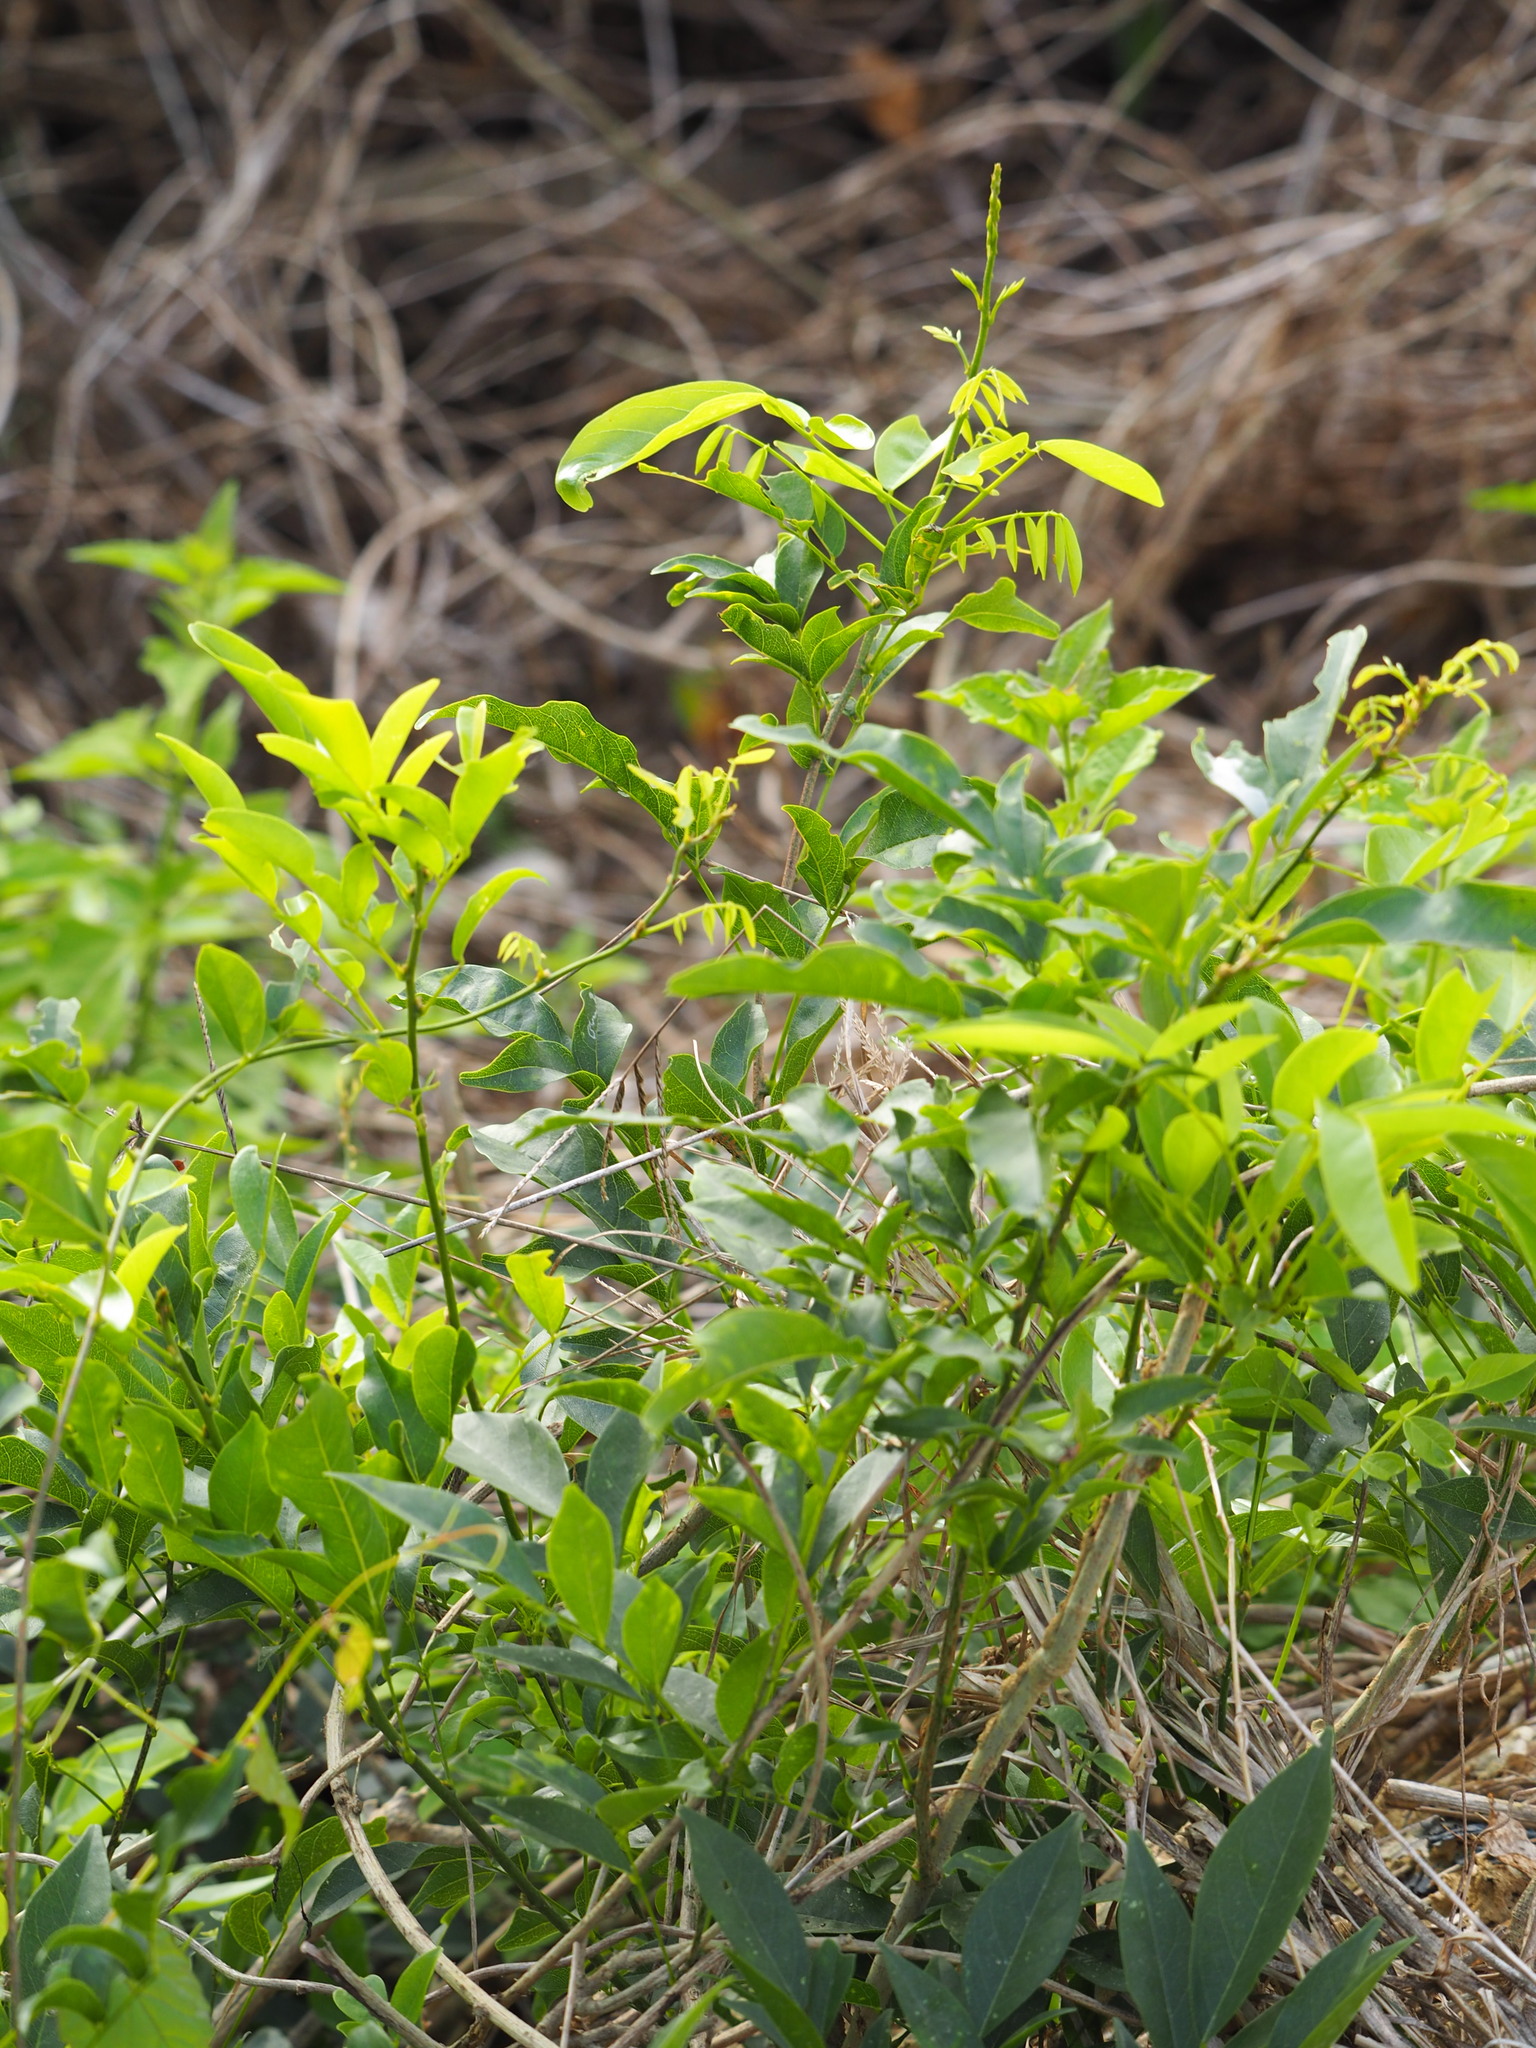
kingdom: Plantae
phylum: Tracheophyta
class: Magnoliopsida
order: Fabales
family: Fabaceae
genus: Wisteriopsis
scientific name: Wisteriopsis reticulata
